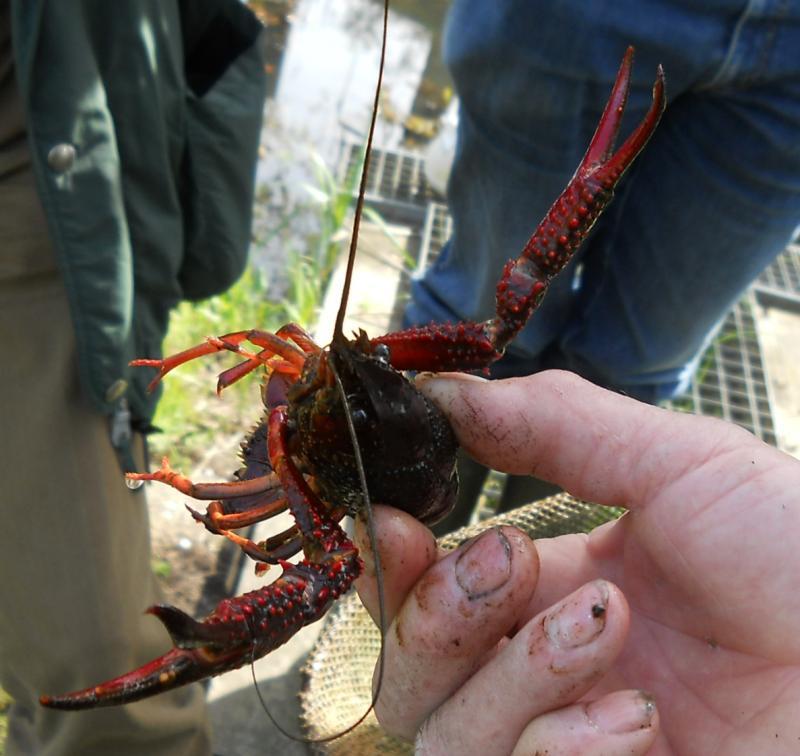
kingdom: Animalia
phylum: Arthropoda
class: Malacostraca
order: Decapoda
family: Cambaridae
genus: Procambarus
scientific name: Procambarus clarkii
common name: Red swamp crayfish
